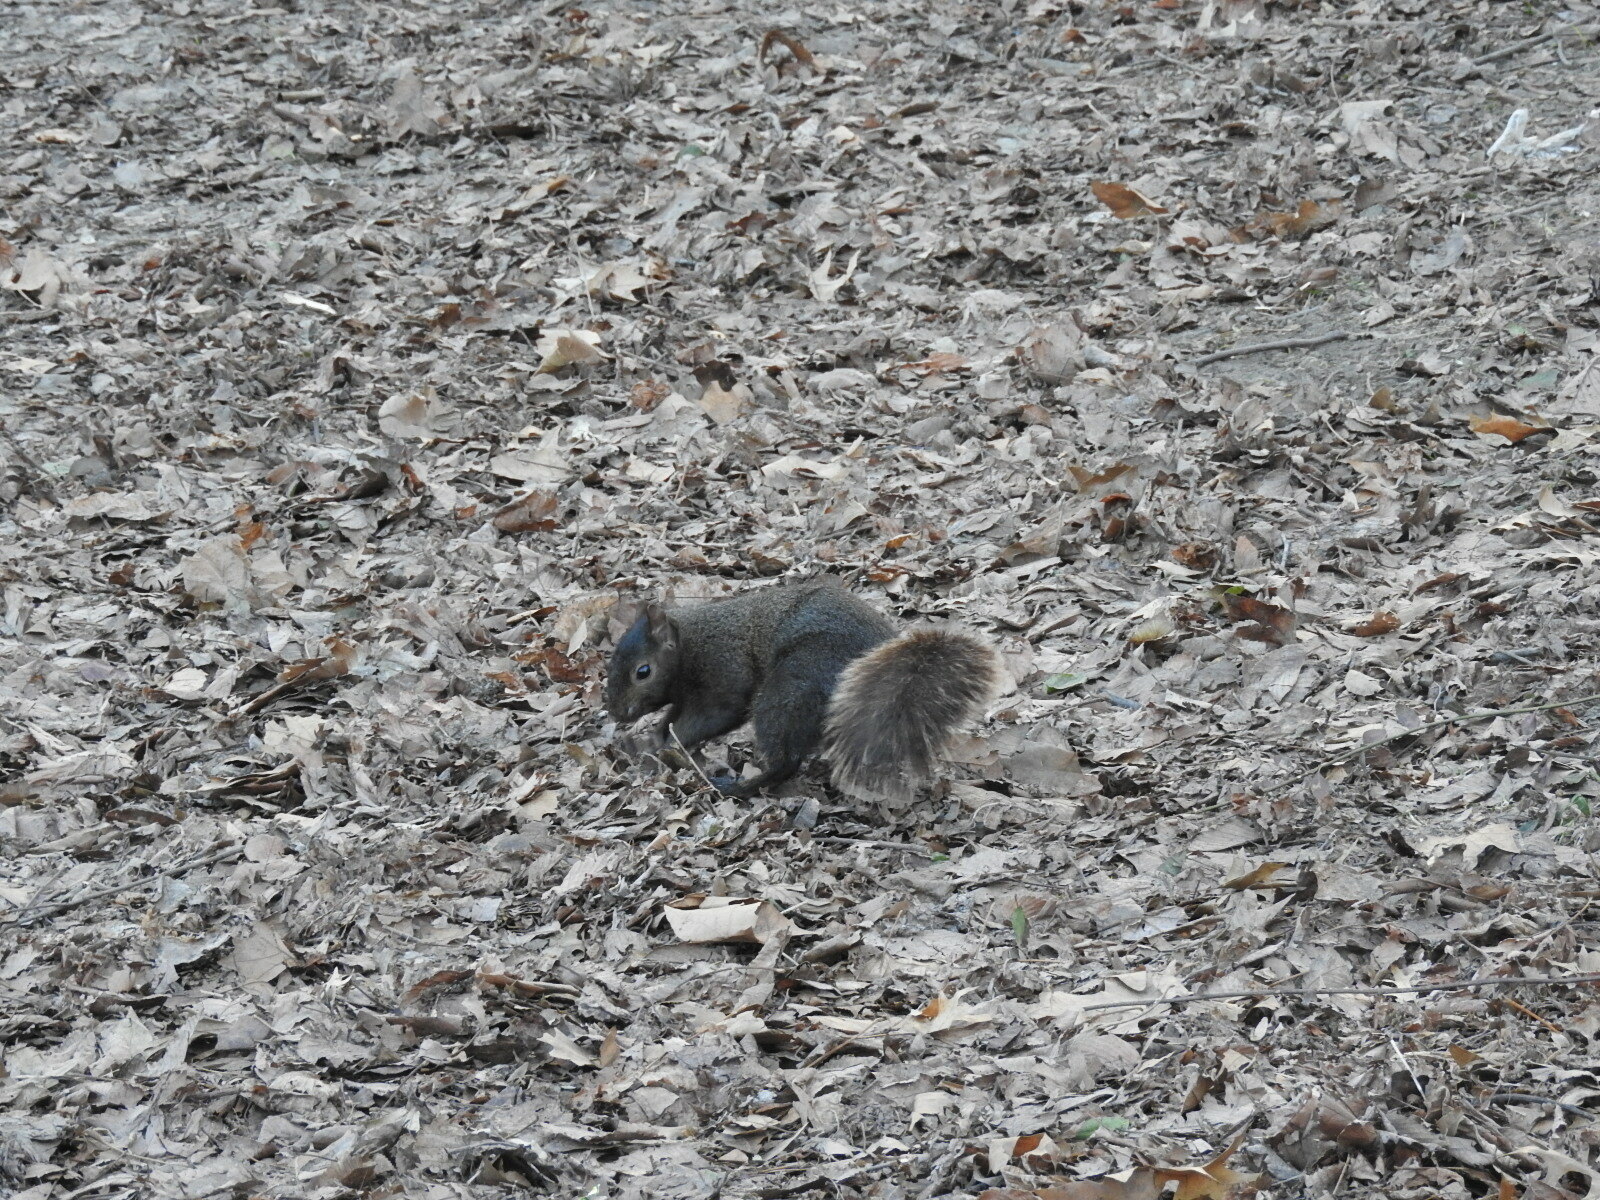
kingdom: Animalia
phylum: Chordata
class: Mammalia
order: Rodentia
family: Sciuridae
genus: Sciurus
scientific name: Sciurus carolinensis
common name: Eastern gray squirrel
